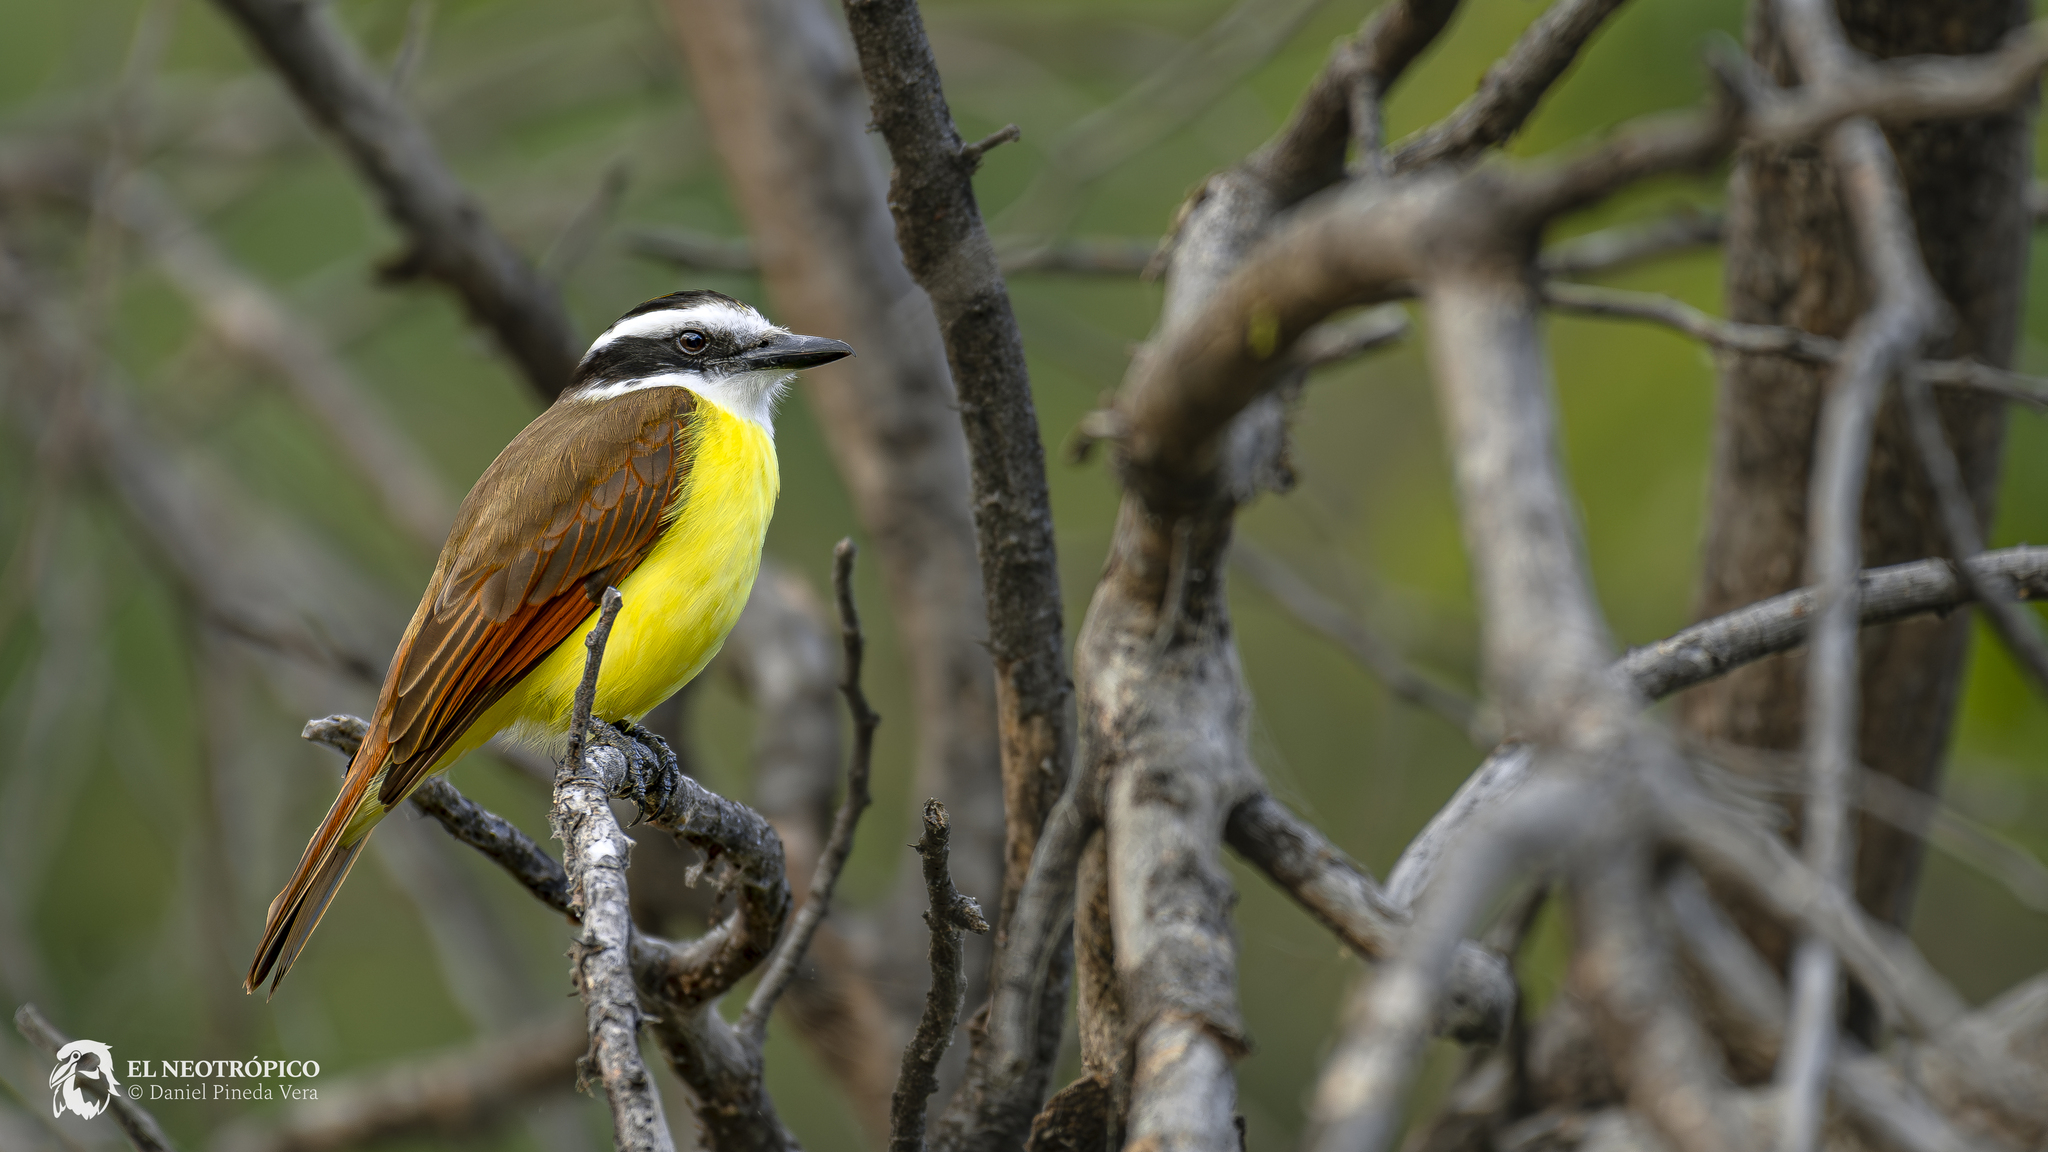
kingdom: Animalia
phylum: Chordata
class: Aves
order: Passeriformes
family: Tyrannidae
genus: Pitangus
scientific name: Pitangus sulphuratus
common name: Great kiskadee
